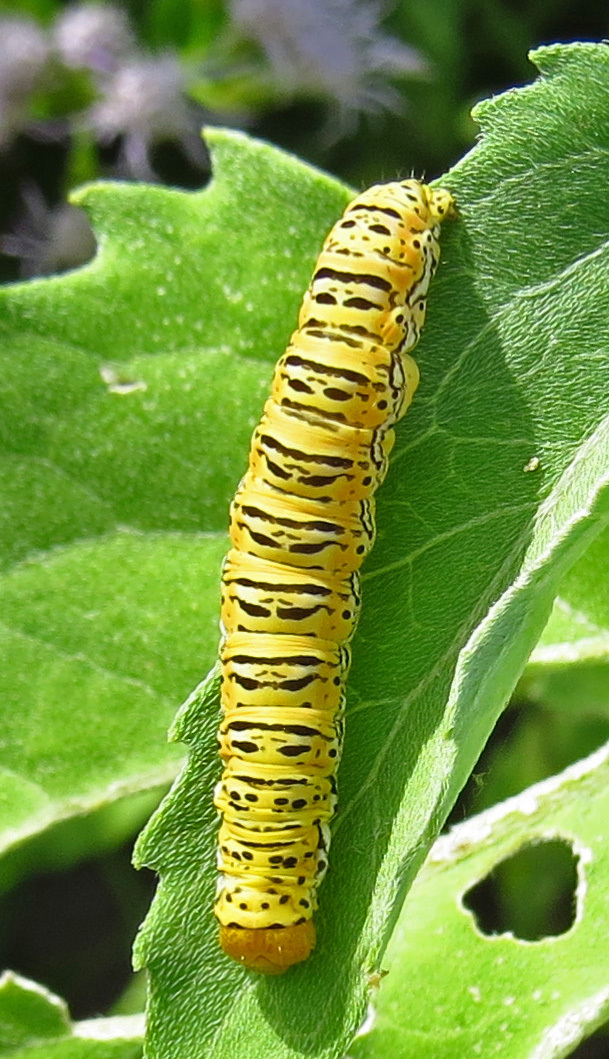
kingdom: Animalia
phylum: Arthropoda
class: Insecta
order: Lepidoptera
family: Noctuidae
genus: Basilodes
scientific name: Basilodes chrysopis
